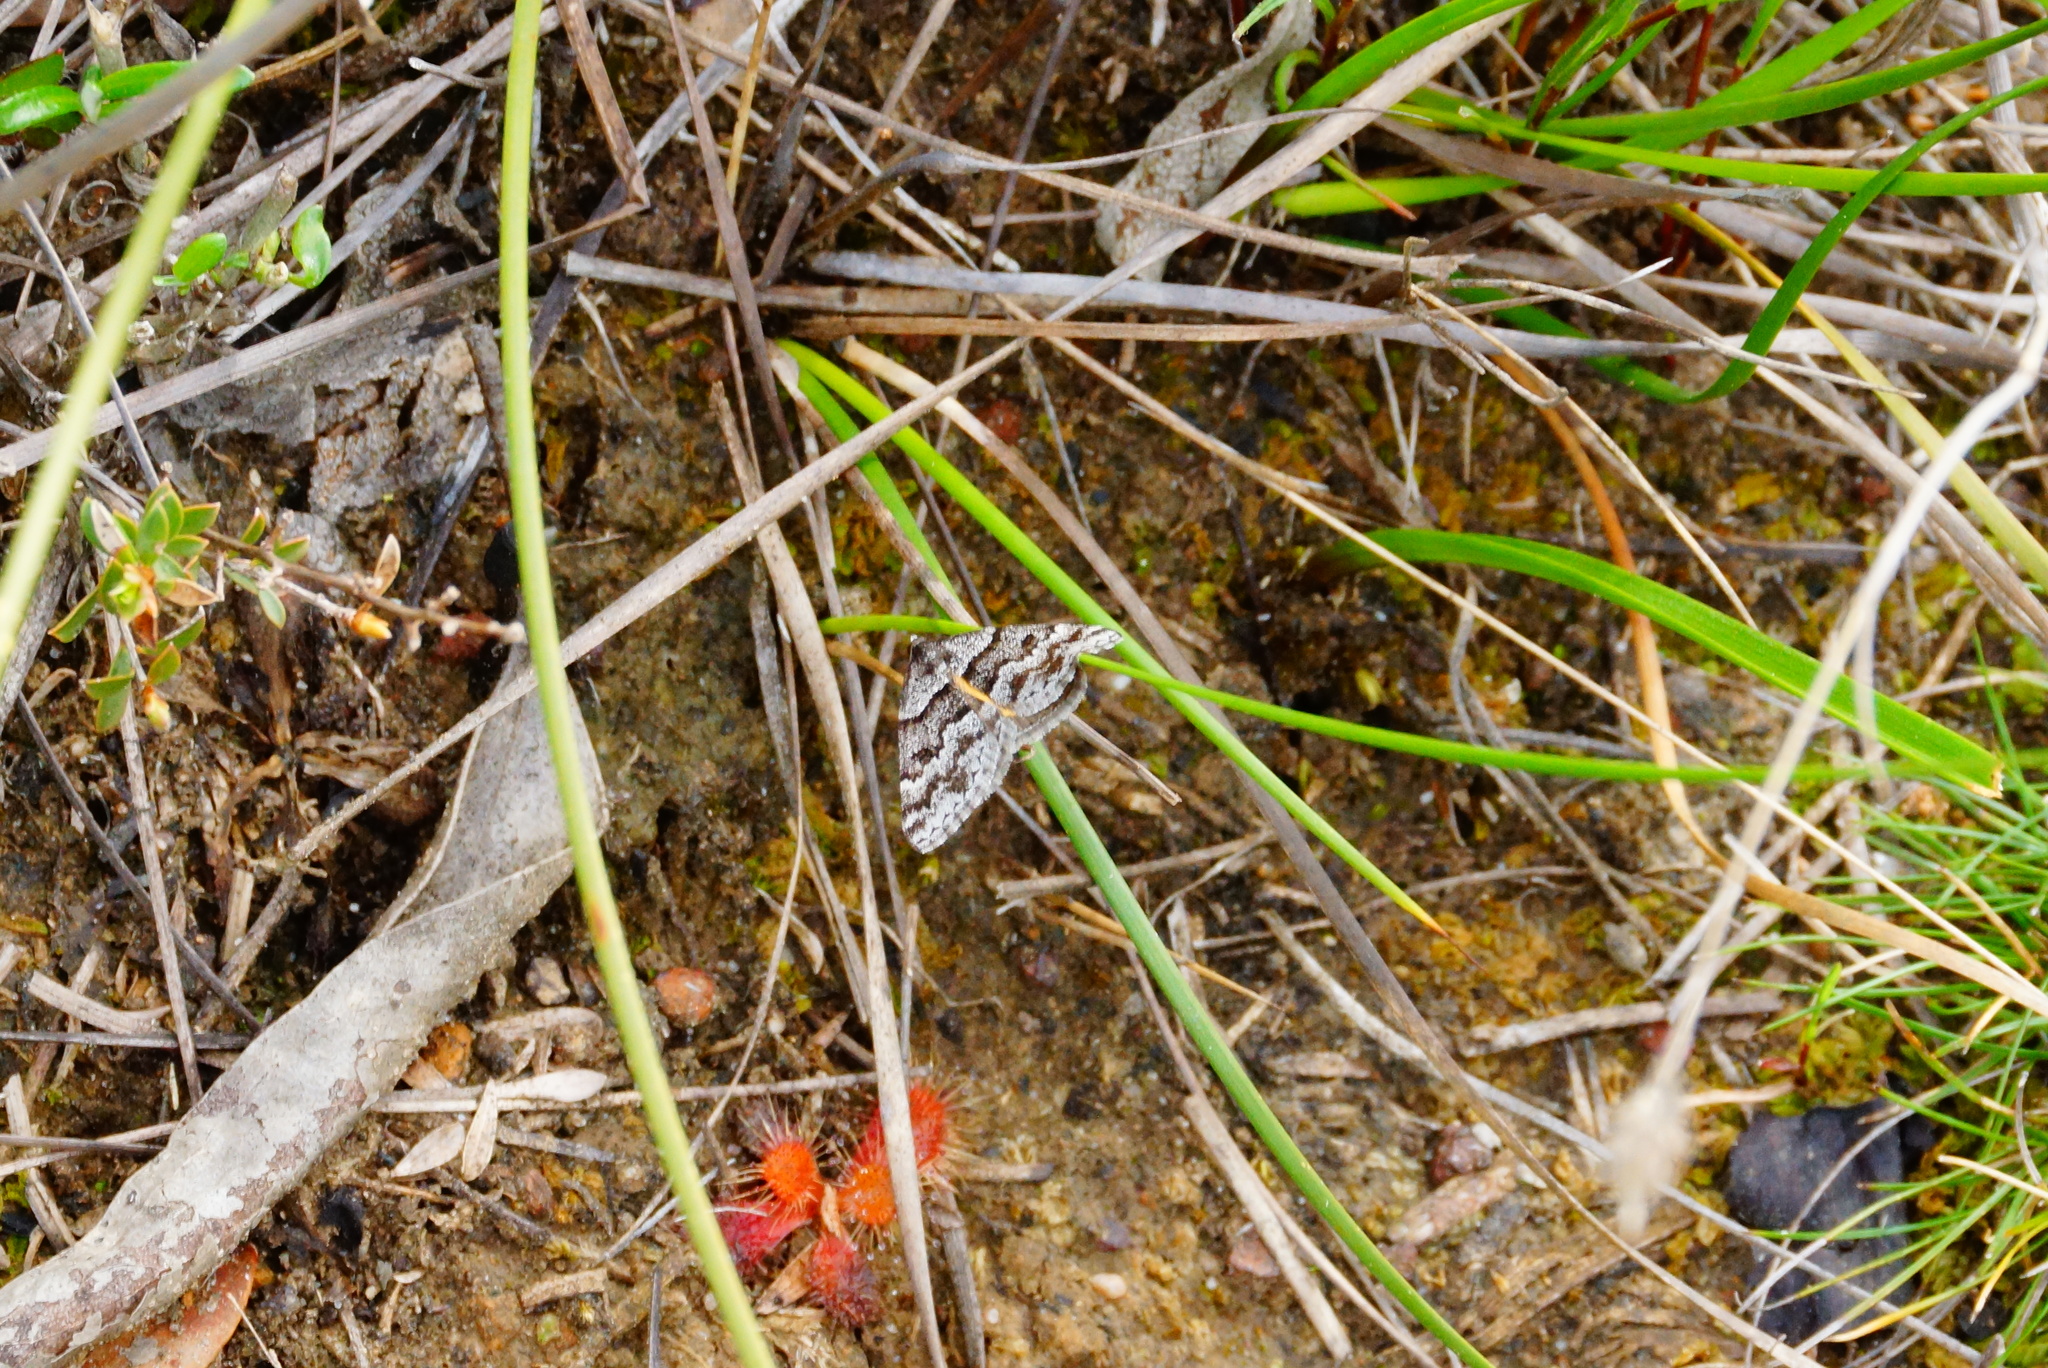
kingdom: Animalia
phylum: Arthropoda
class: Insecta
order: Lepidoptera
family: Geometridae
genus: Dichromodes
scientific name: Dichromodes ainaria
